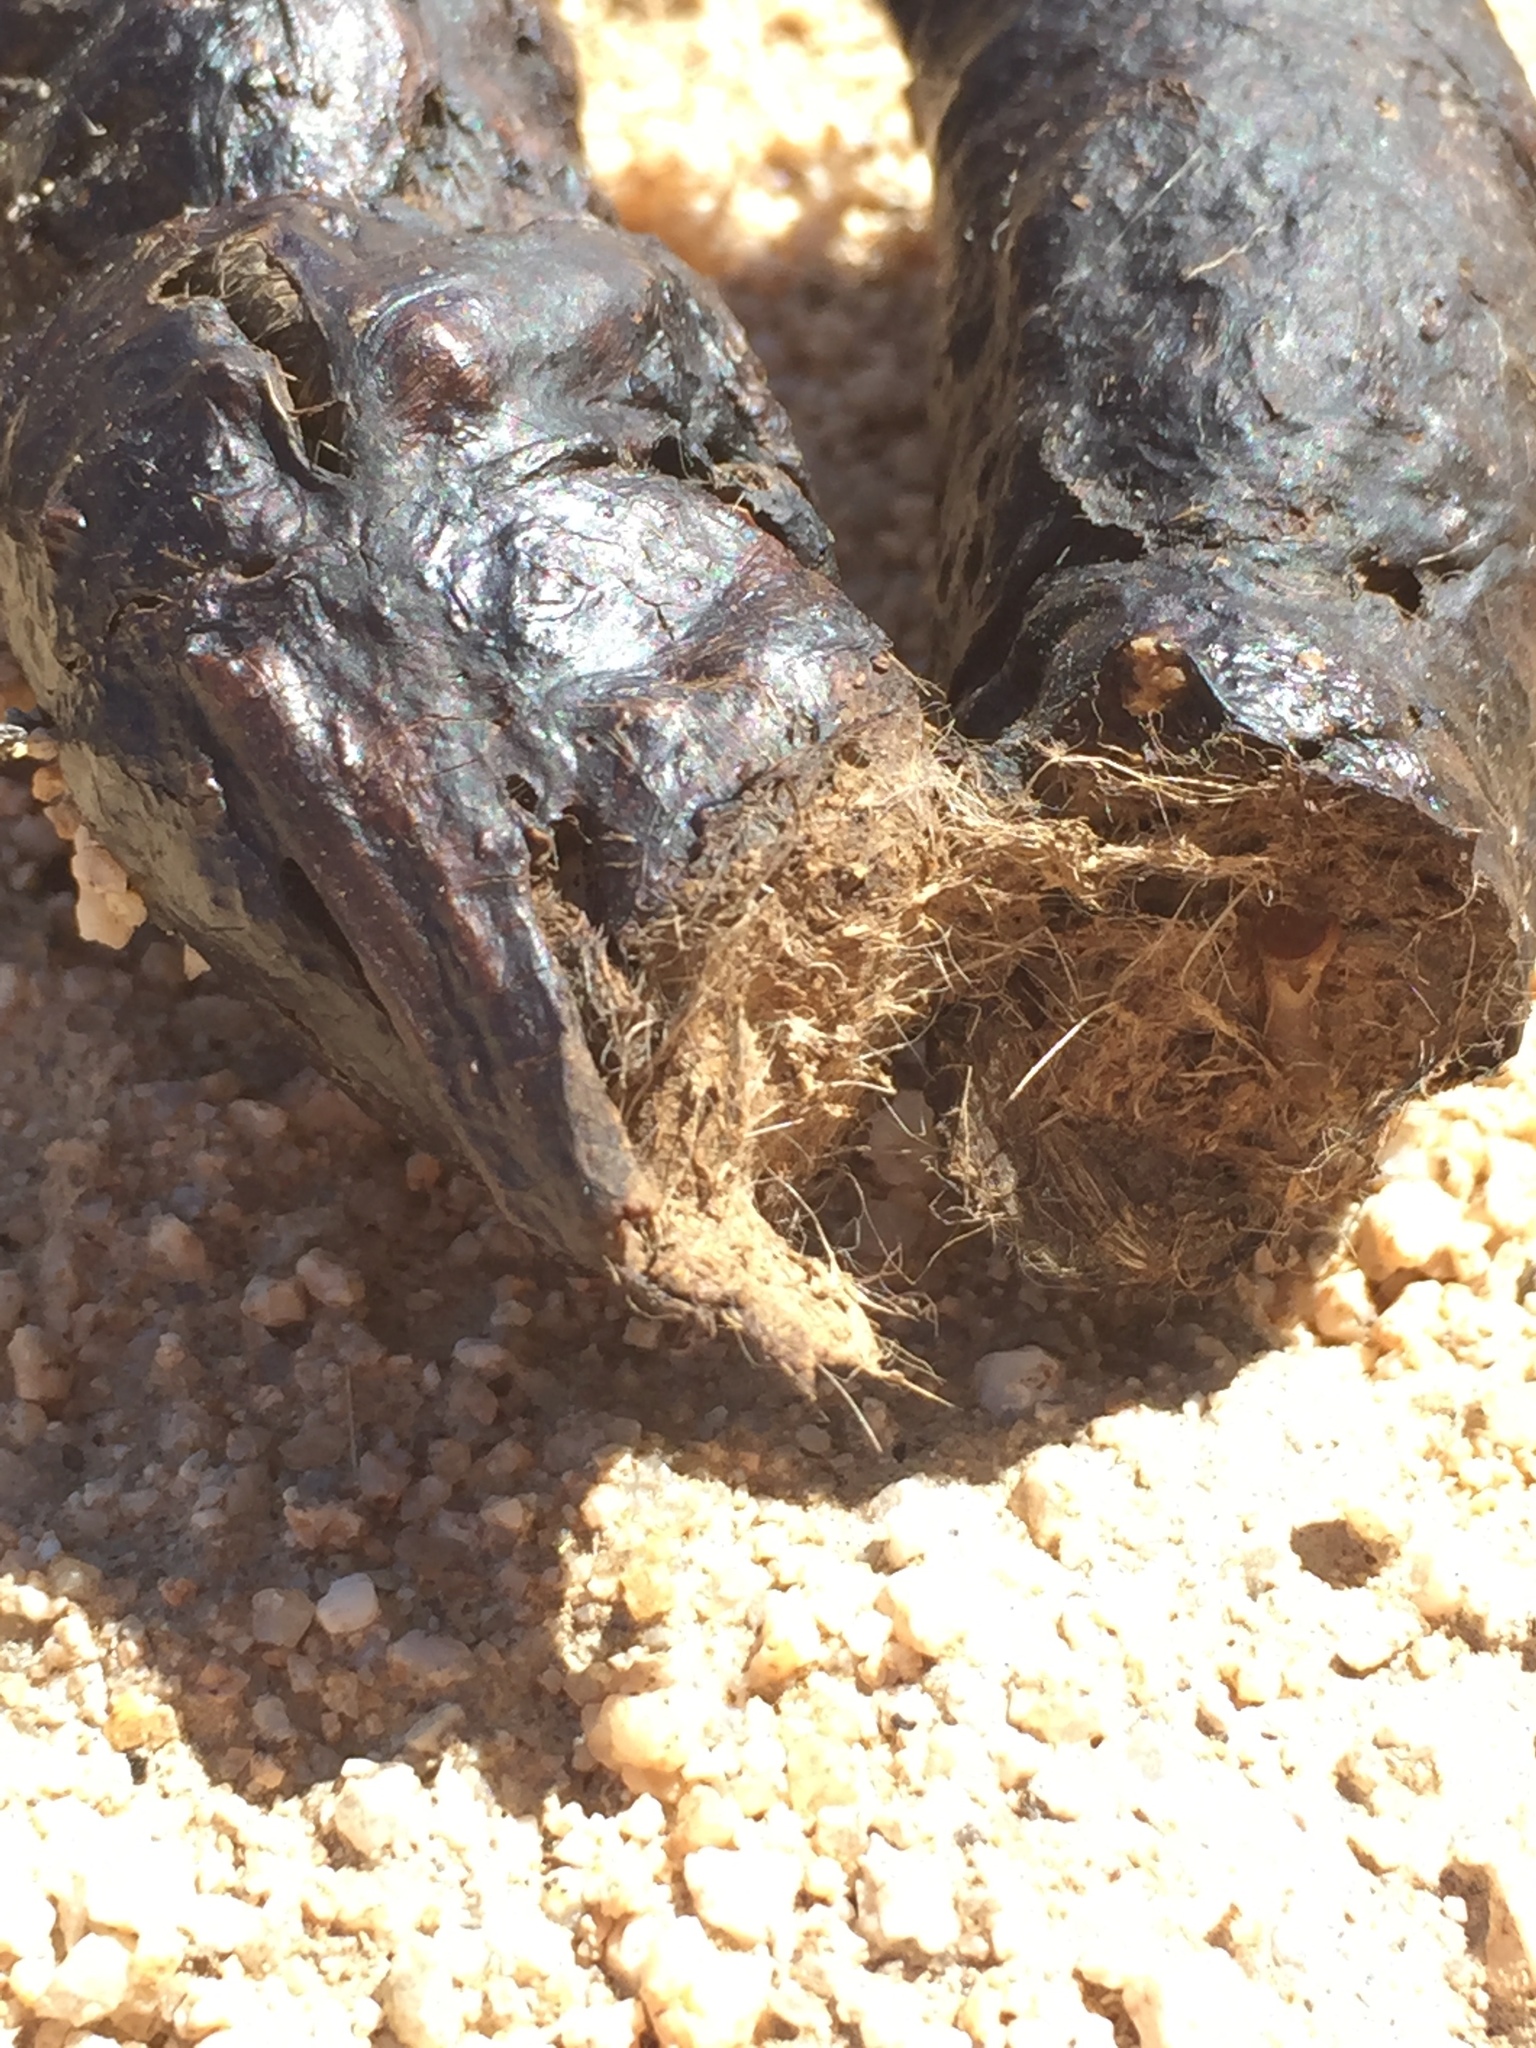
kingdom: Animalia
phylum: Chordata
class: Mammalia
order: Carnivora
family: Canidae
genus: Canis
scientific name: Canis latrans
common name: Coyote
